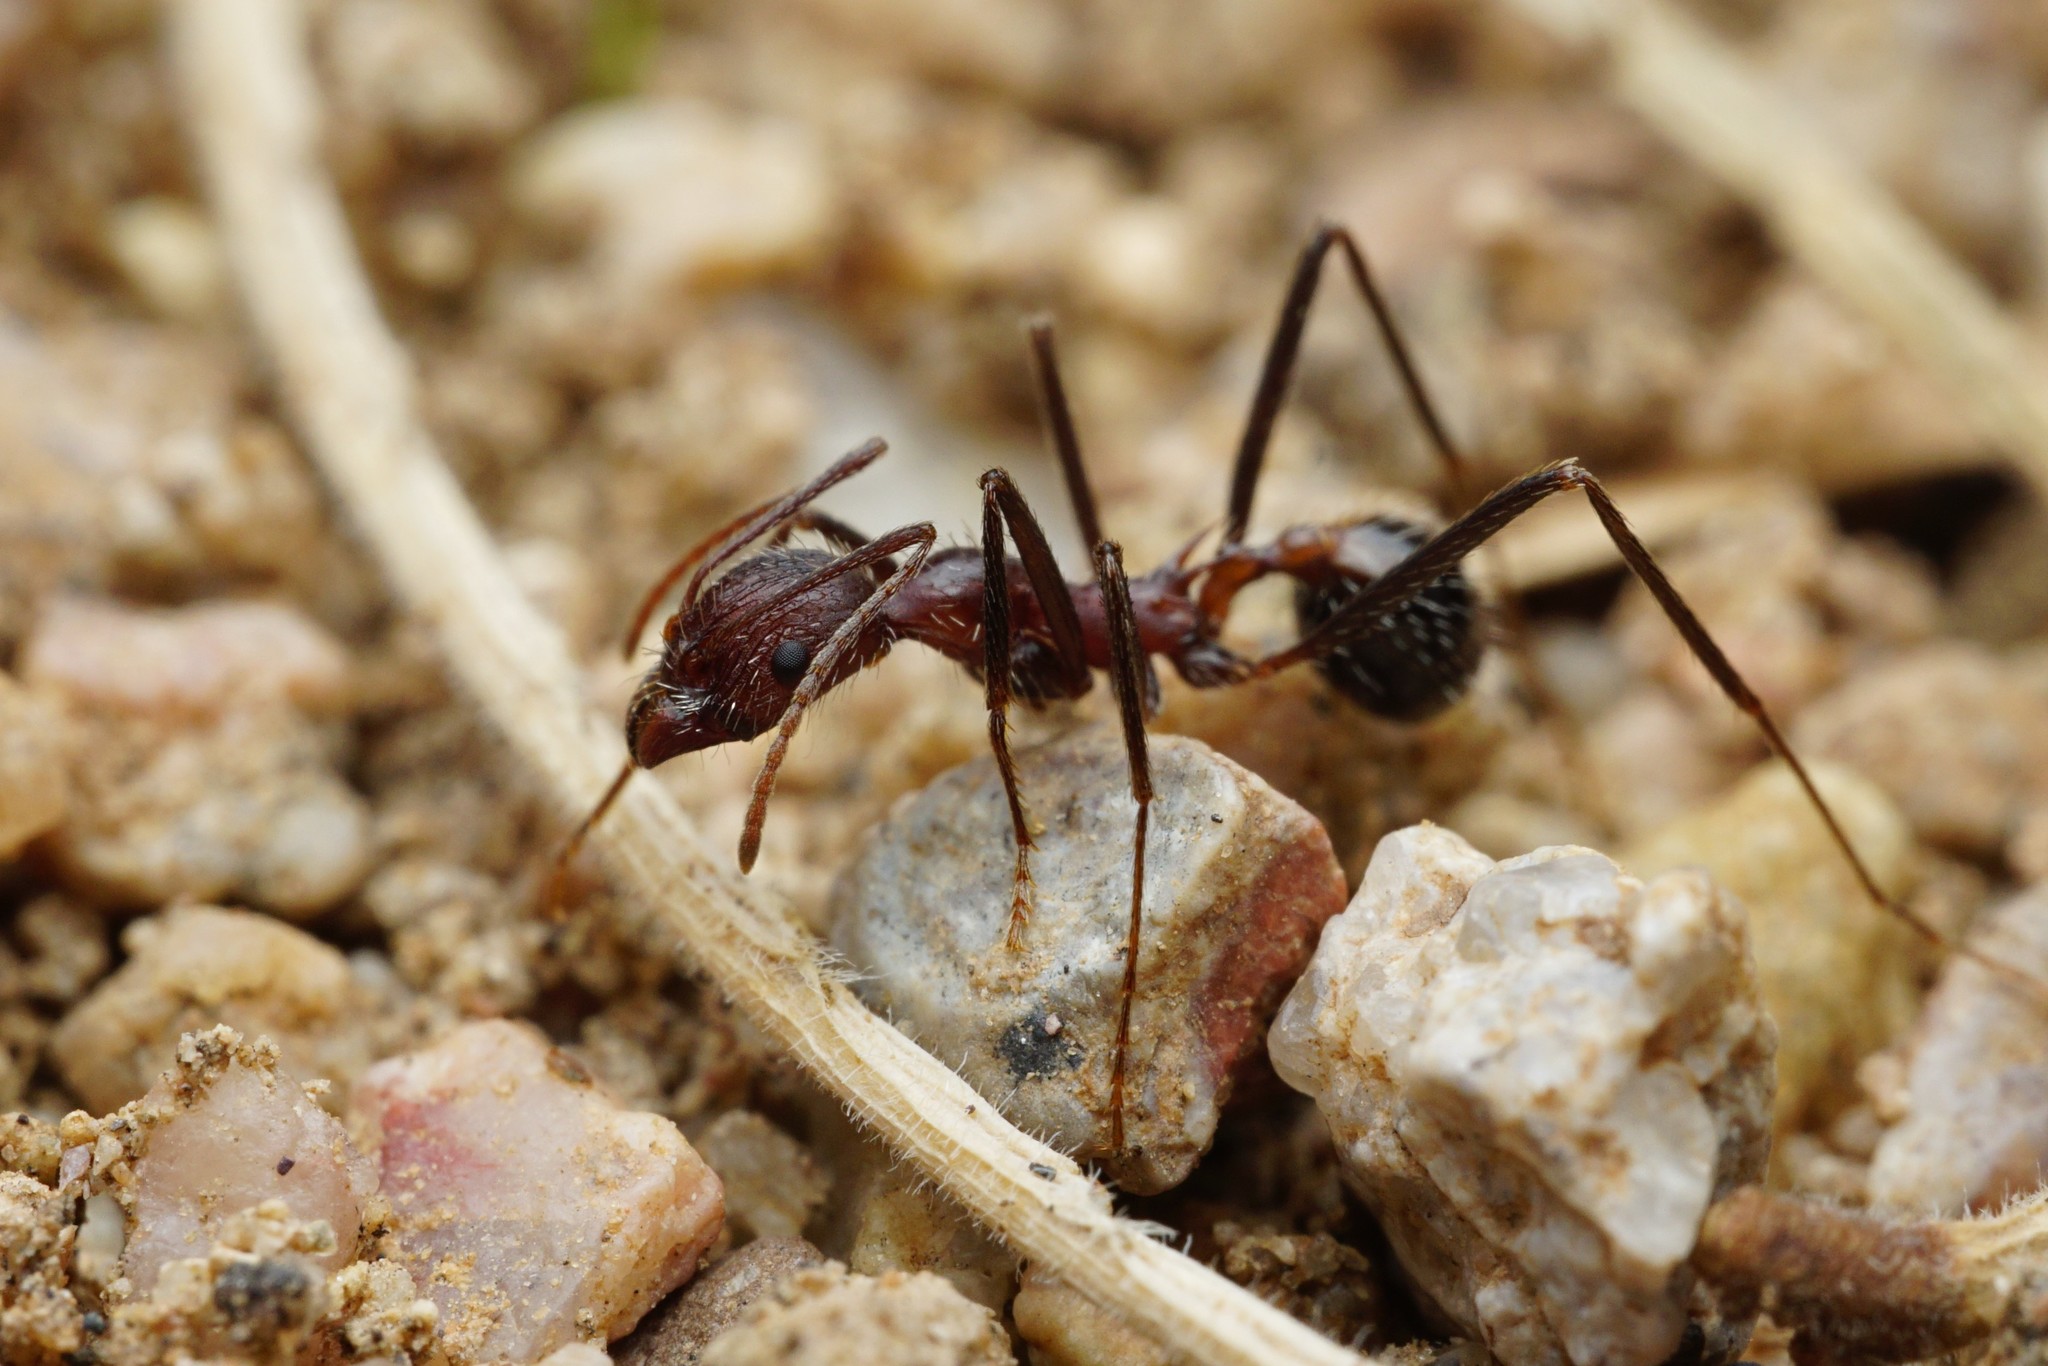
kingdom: Animalia
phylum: Arthropoda
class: Insecta
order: Hymenoptera
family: Formicidae
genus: Novomessor
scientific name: Novomessor albisetosa
